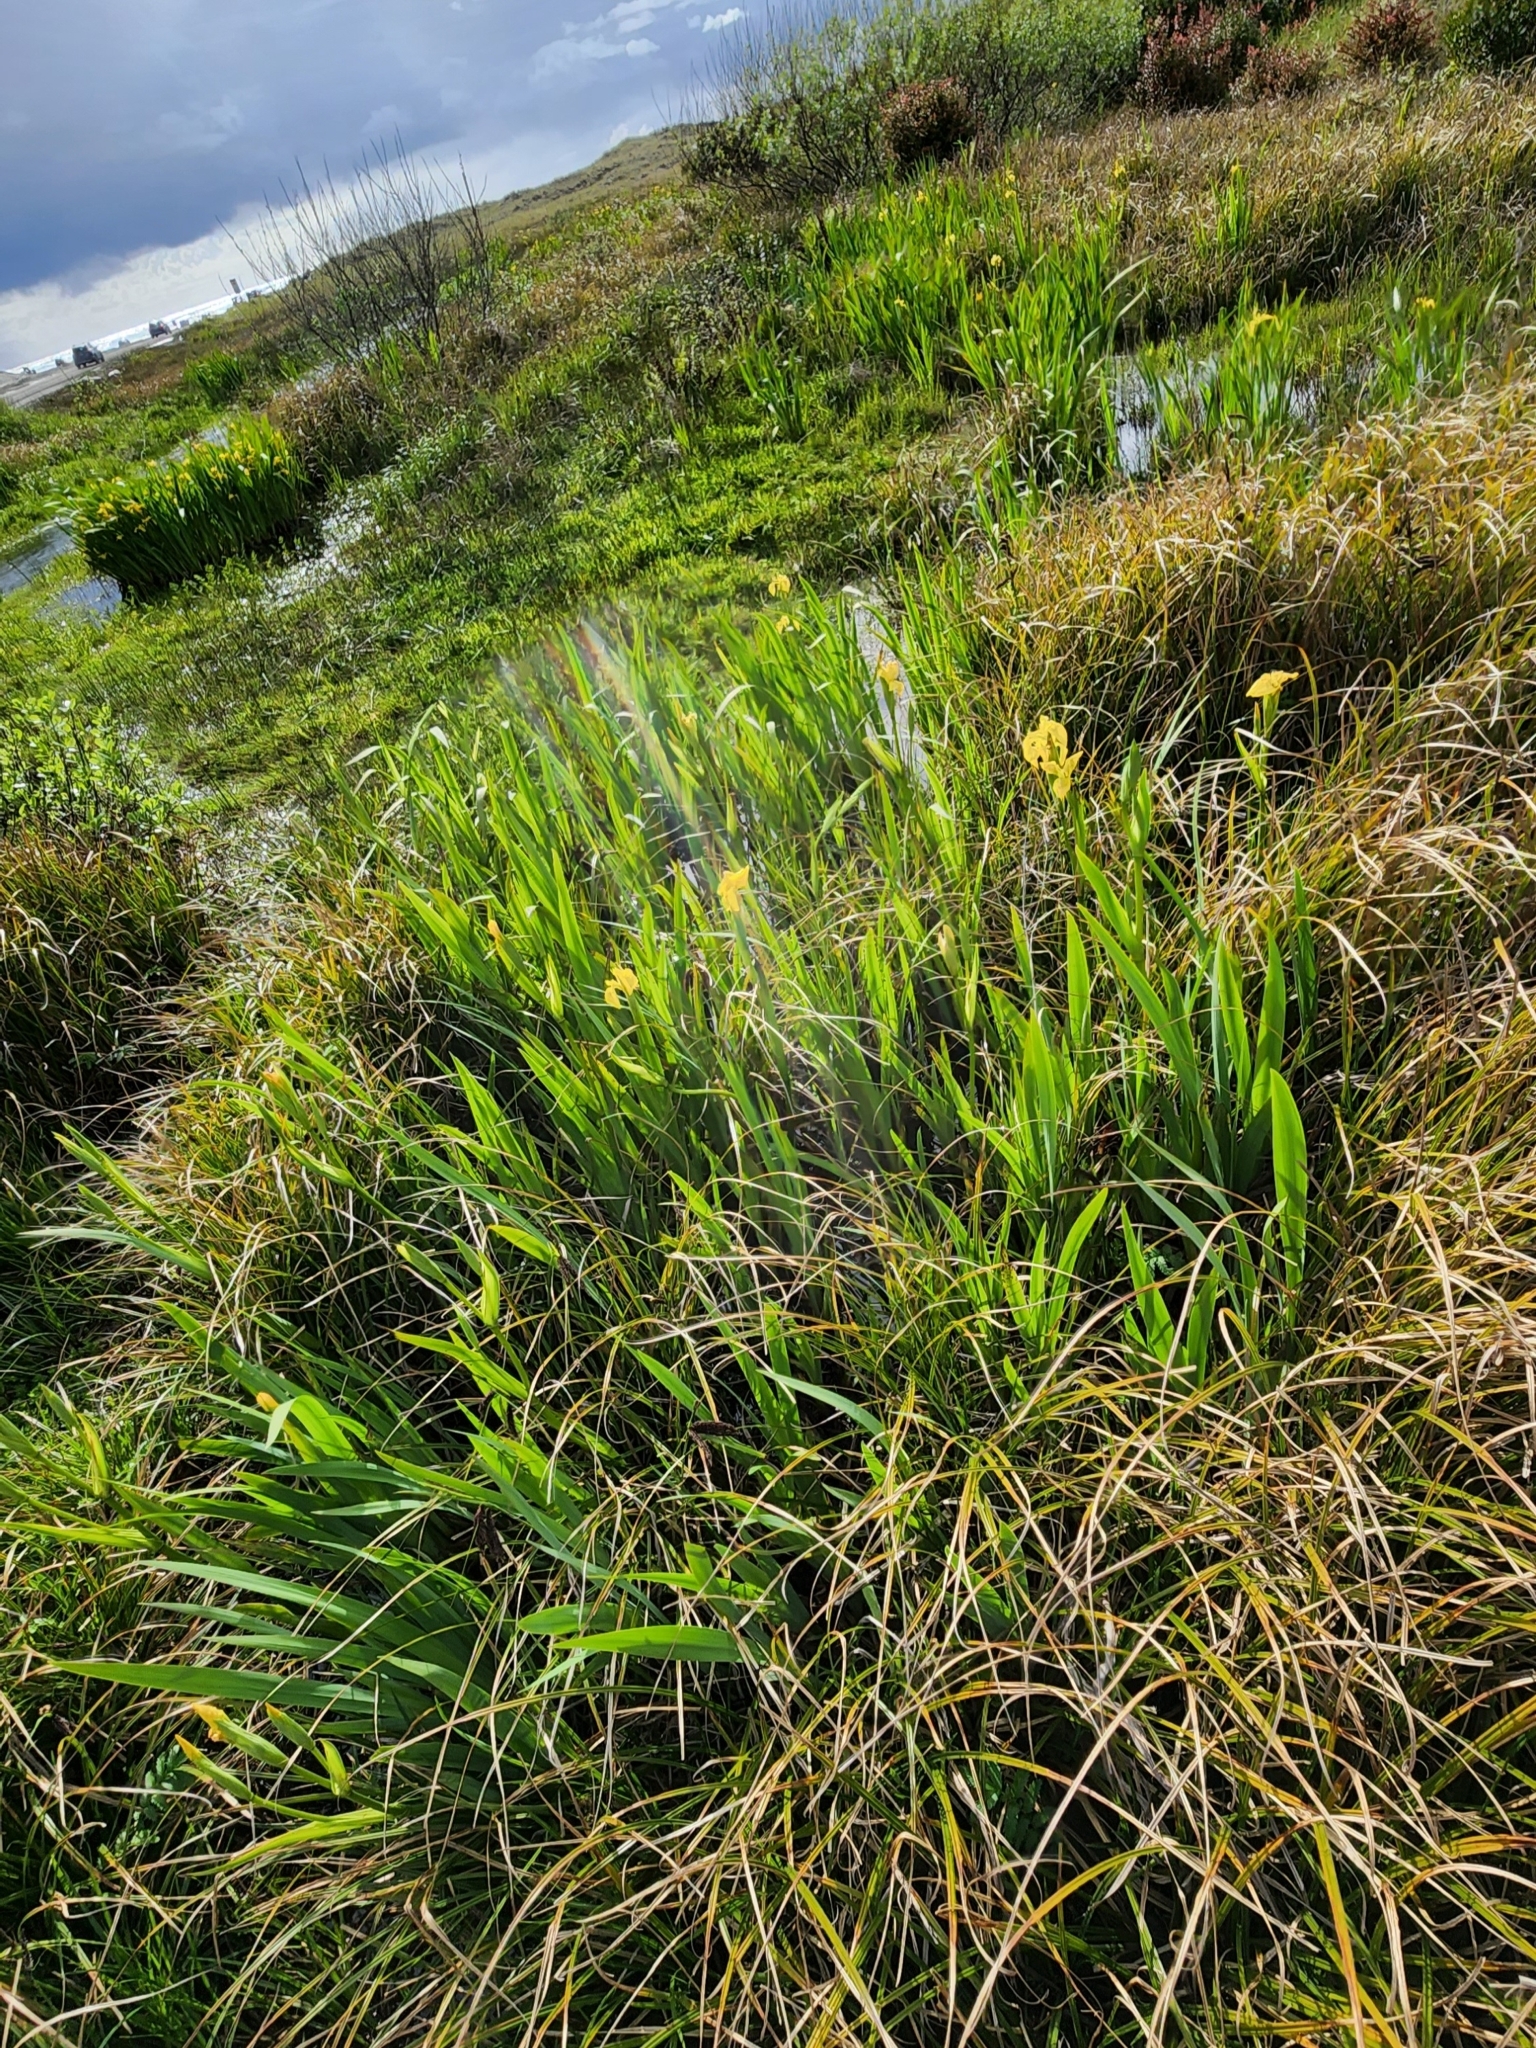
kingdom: Plantae
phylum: Tracheophyta
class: Liliopsida
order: Asparagales
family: Iridaceae
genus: Iris
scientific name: Iris pseudacorus
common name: Yellow flag
